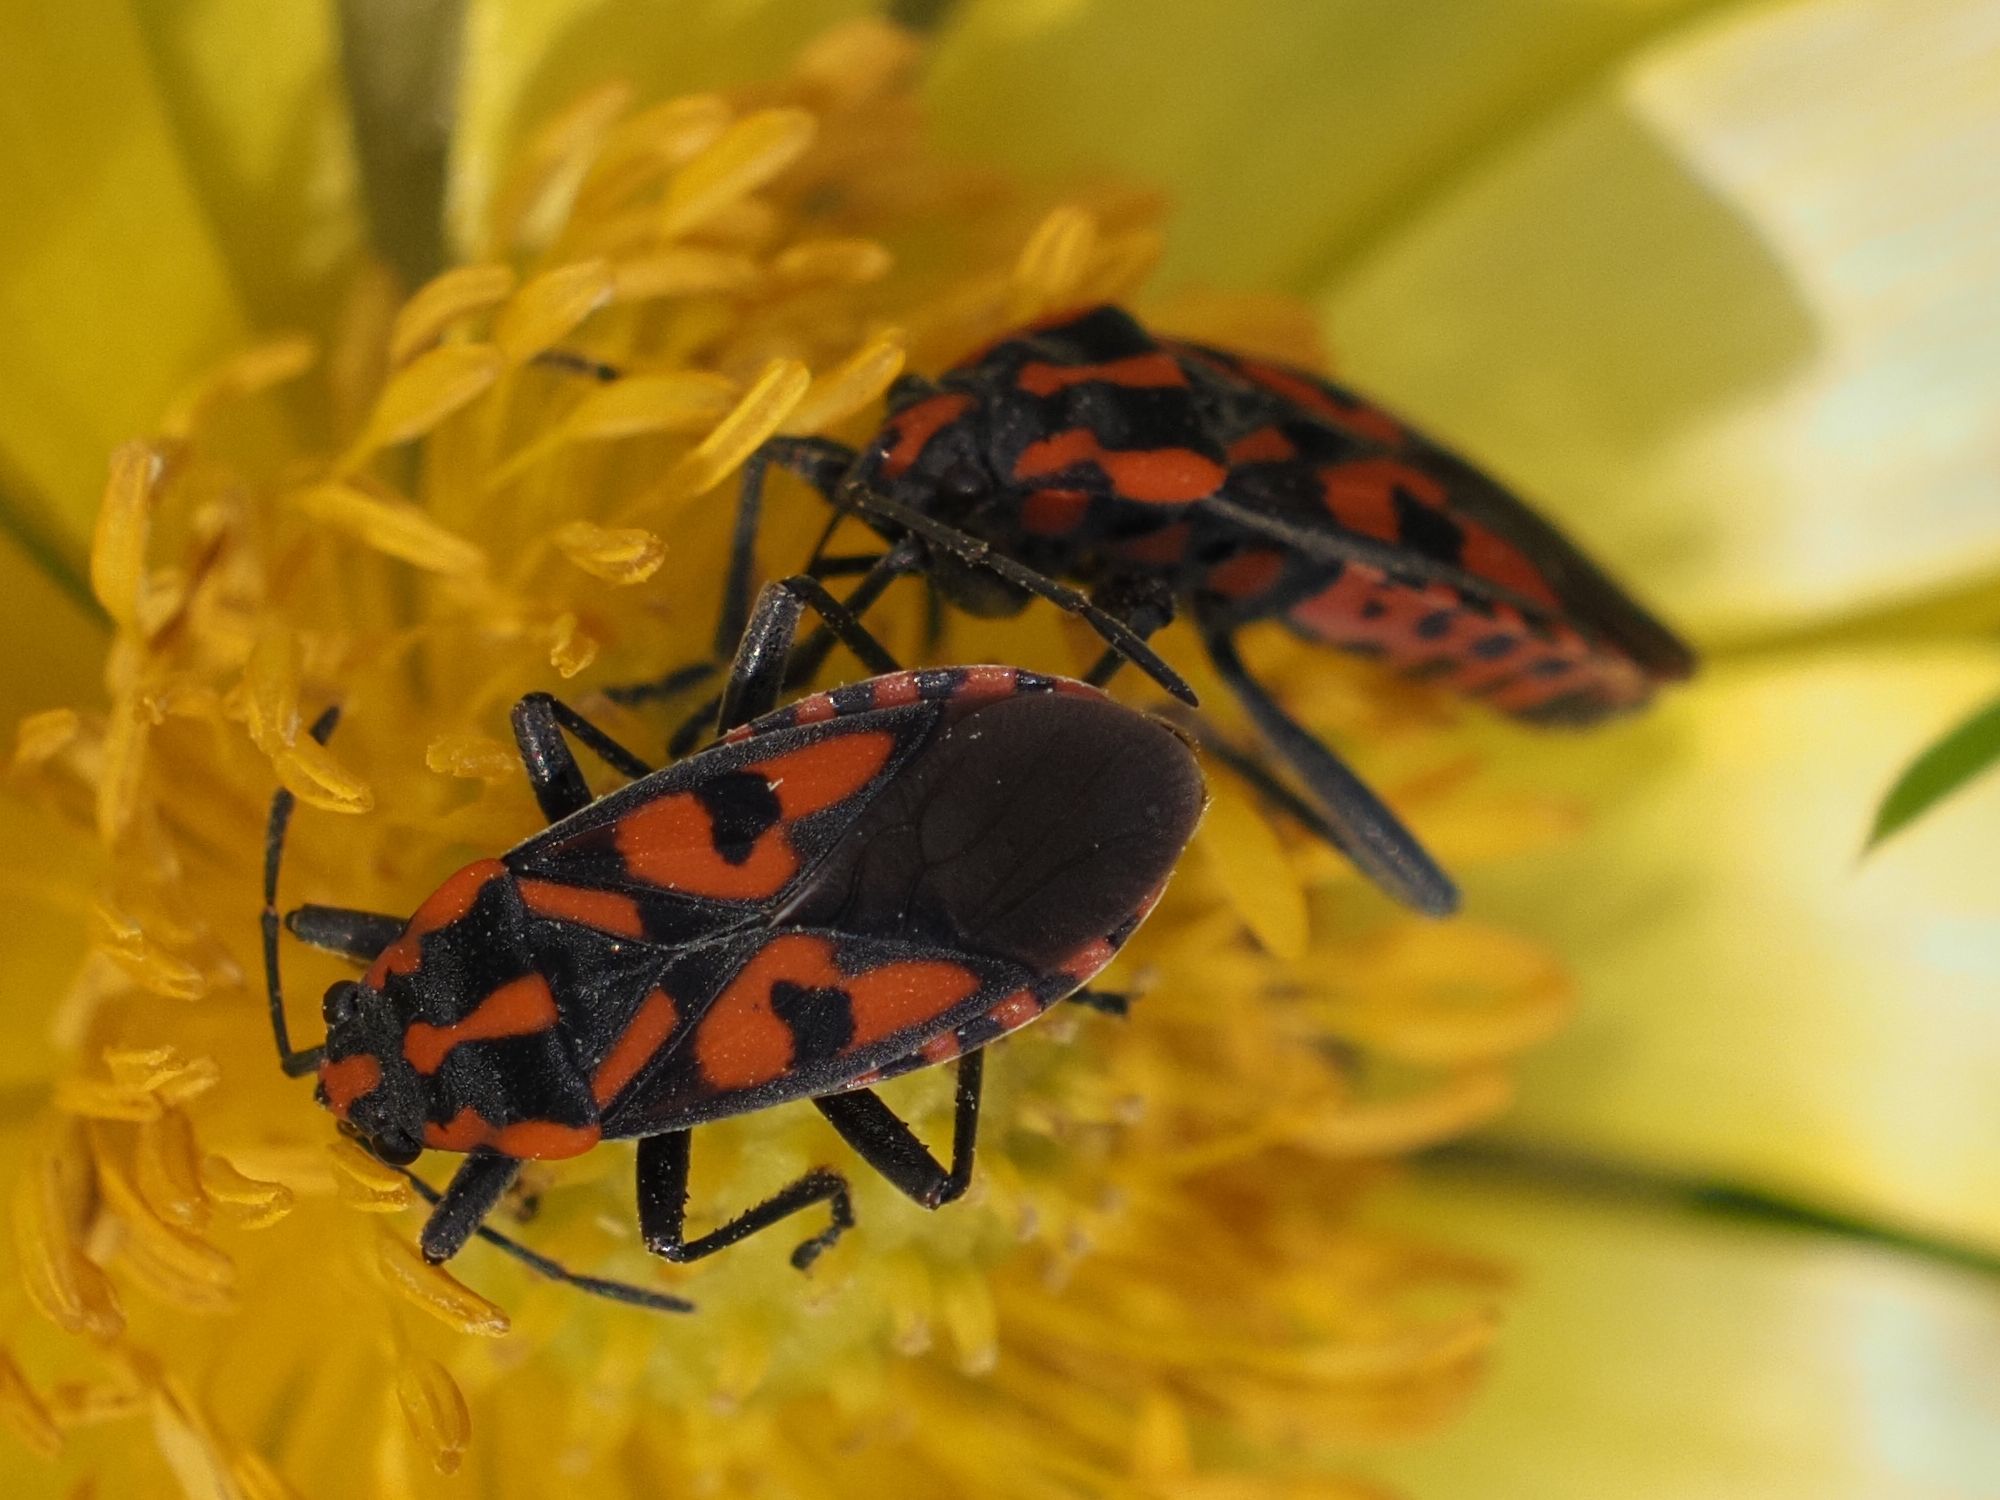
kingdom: Animalia
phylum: Arthropoda
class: Insecta
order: Hemiptera
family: Lygaeidae
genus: Spilostethus
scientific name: Spilostethus saxatilis
